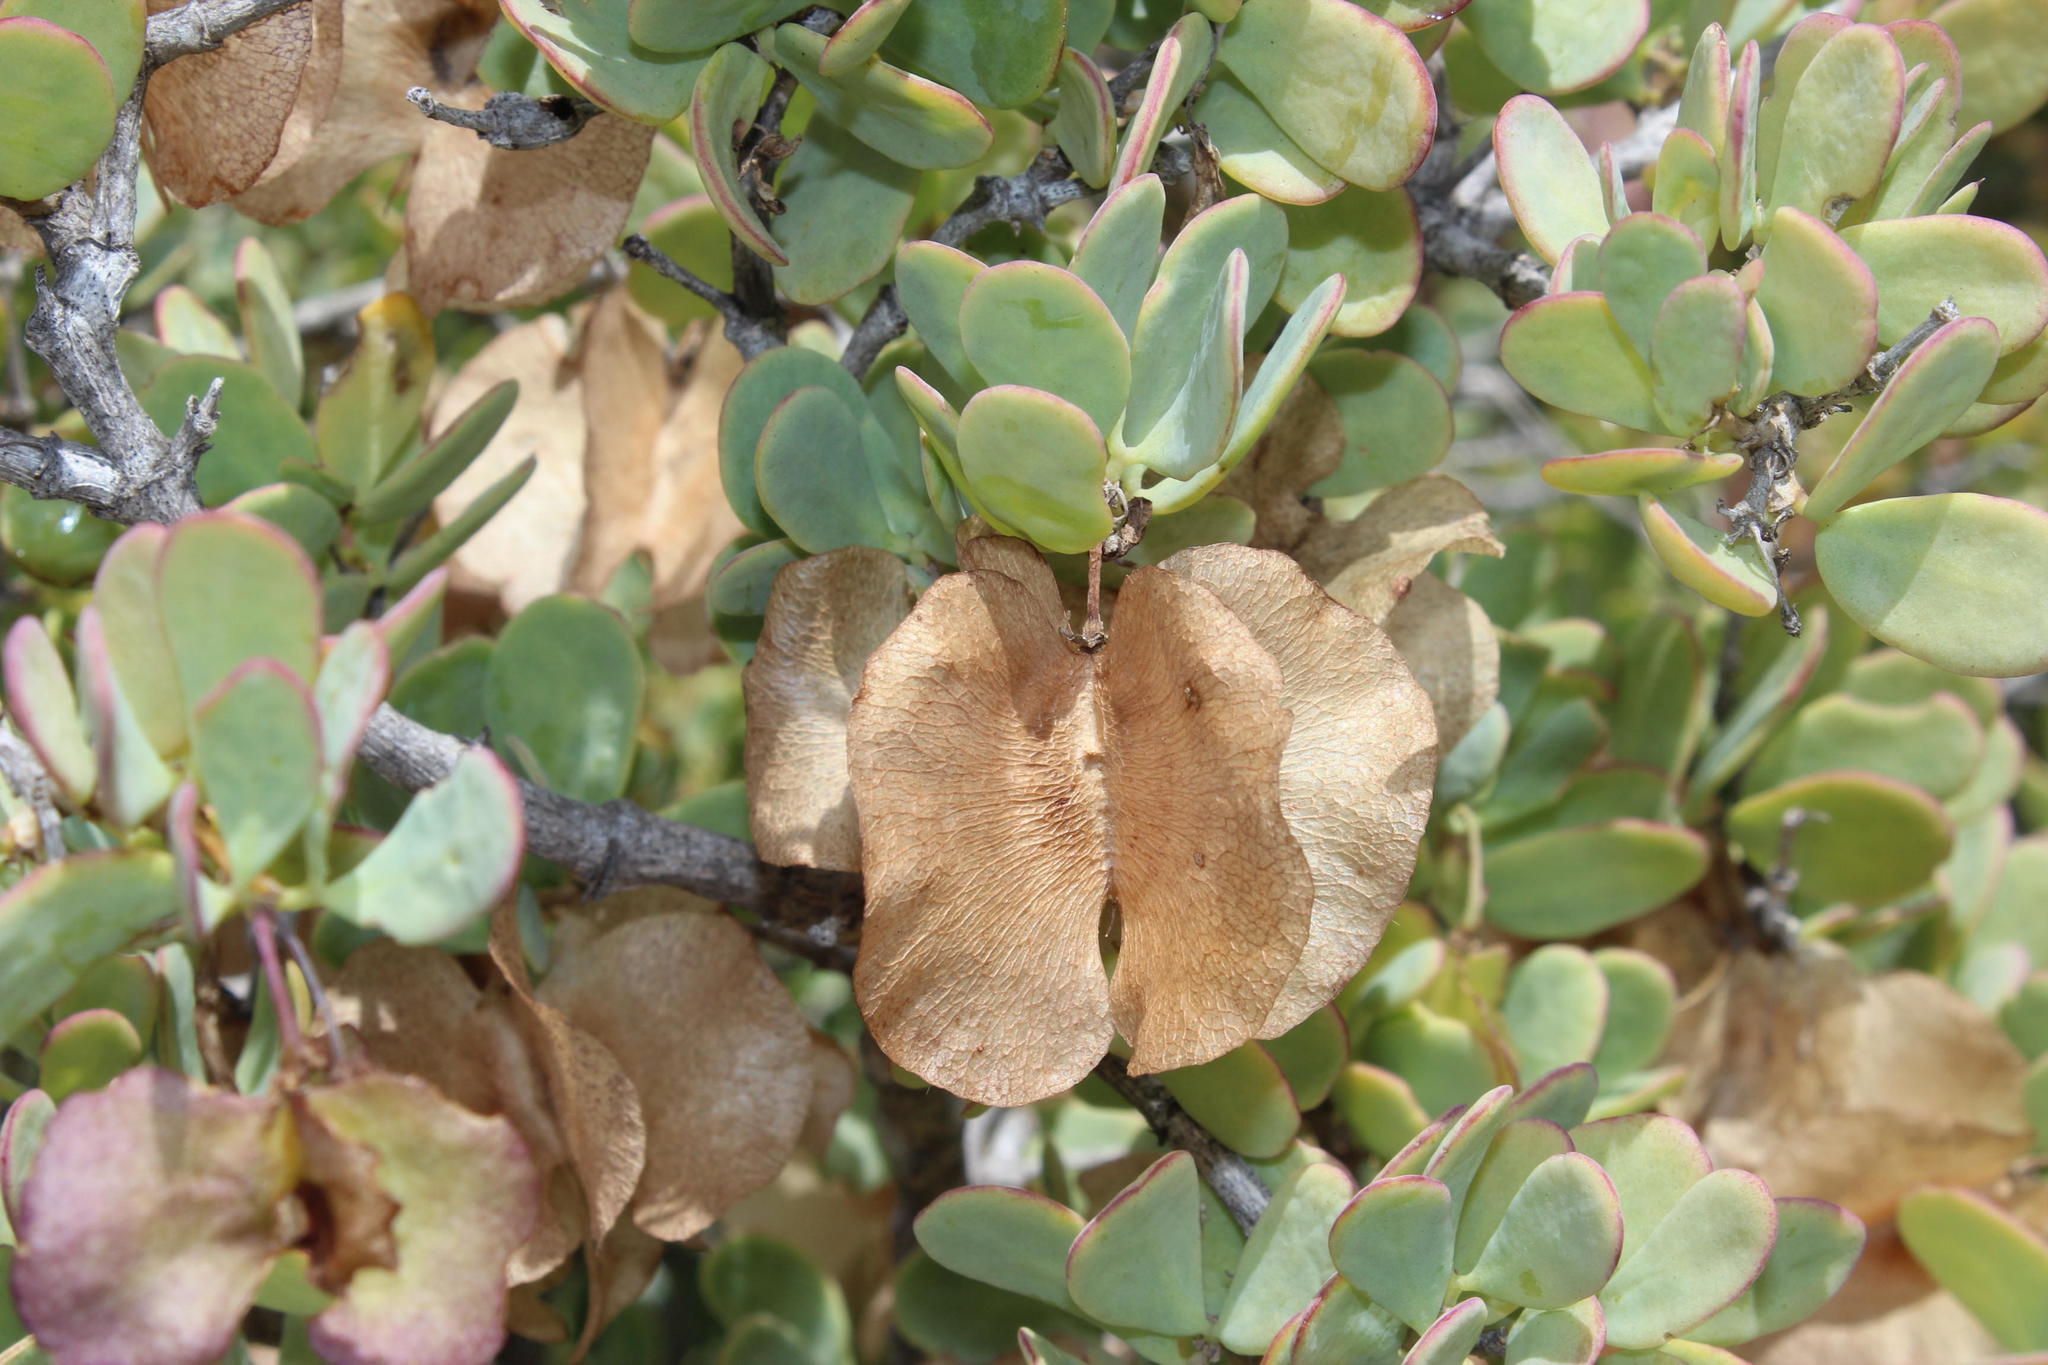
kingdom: Plantae
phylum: Tracheophyta
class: Magnoliopsida
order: Zygophyllales
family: Zygophyllaceae
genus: Roepera
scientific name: Roepera morgsana
